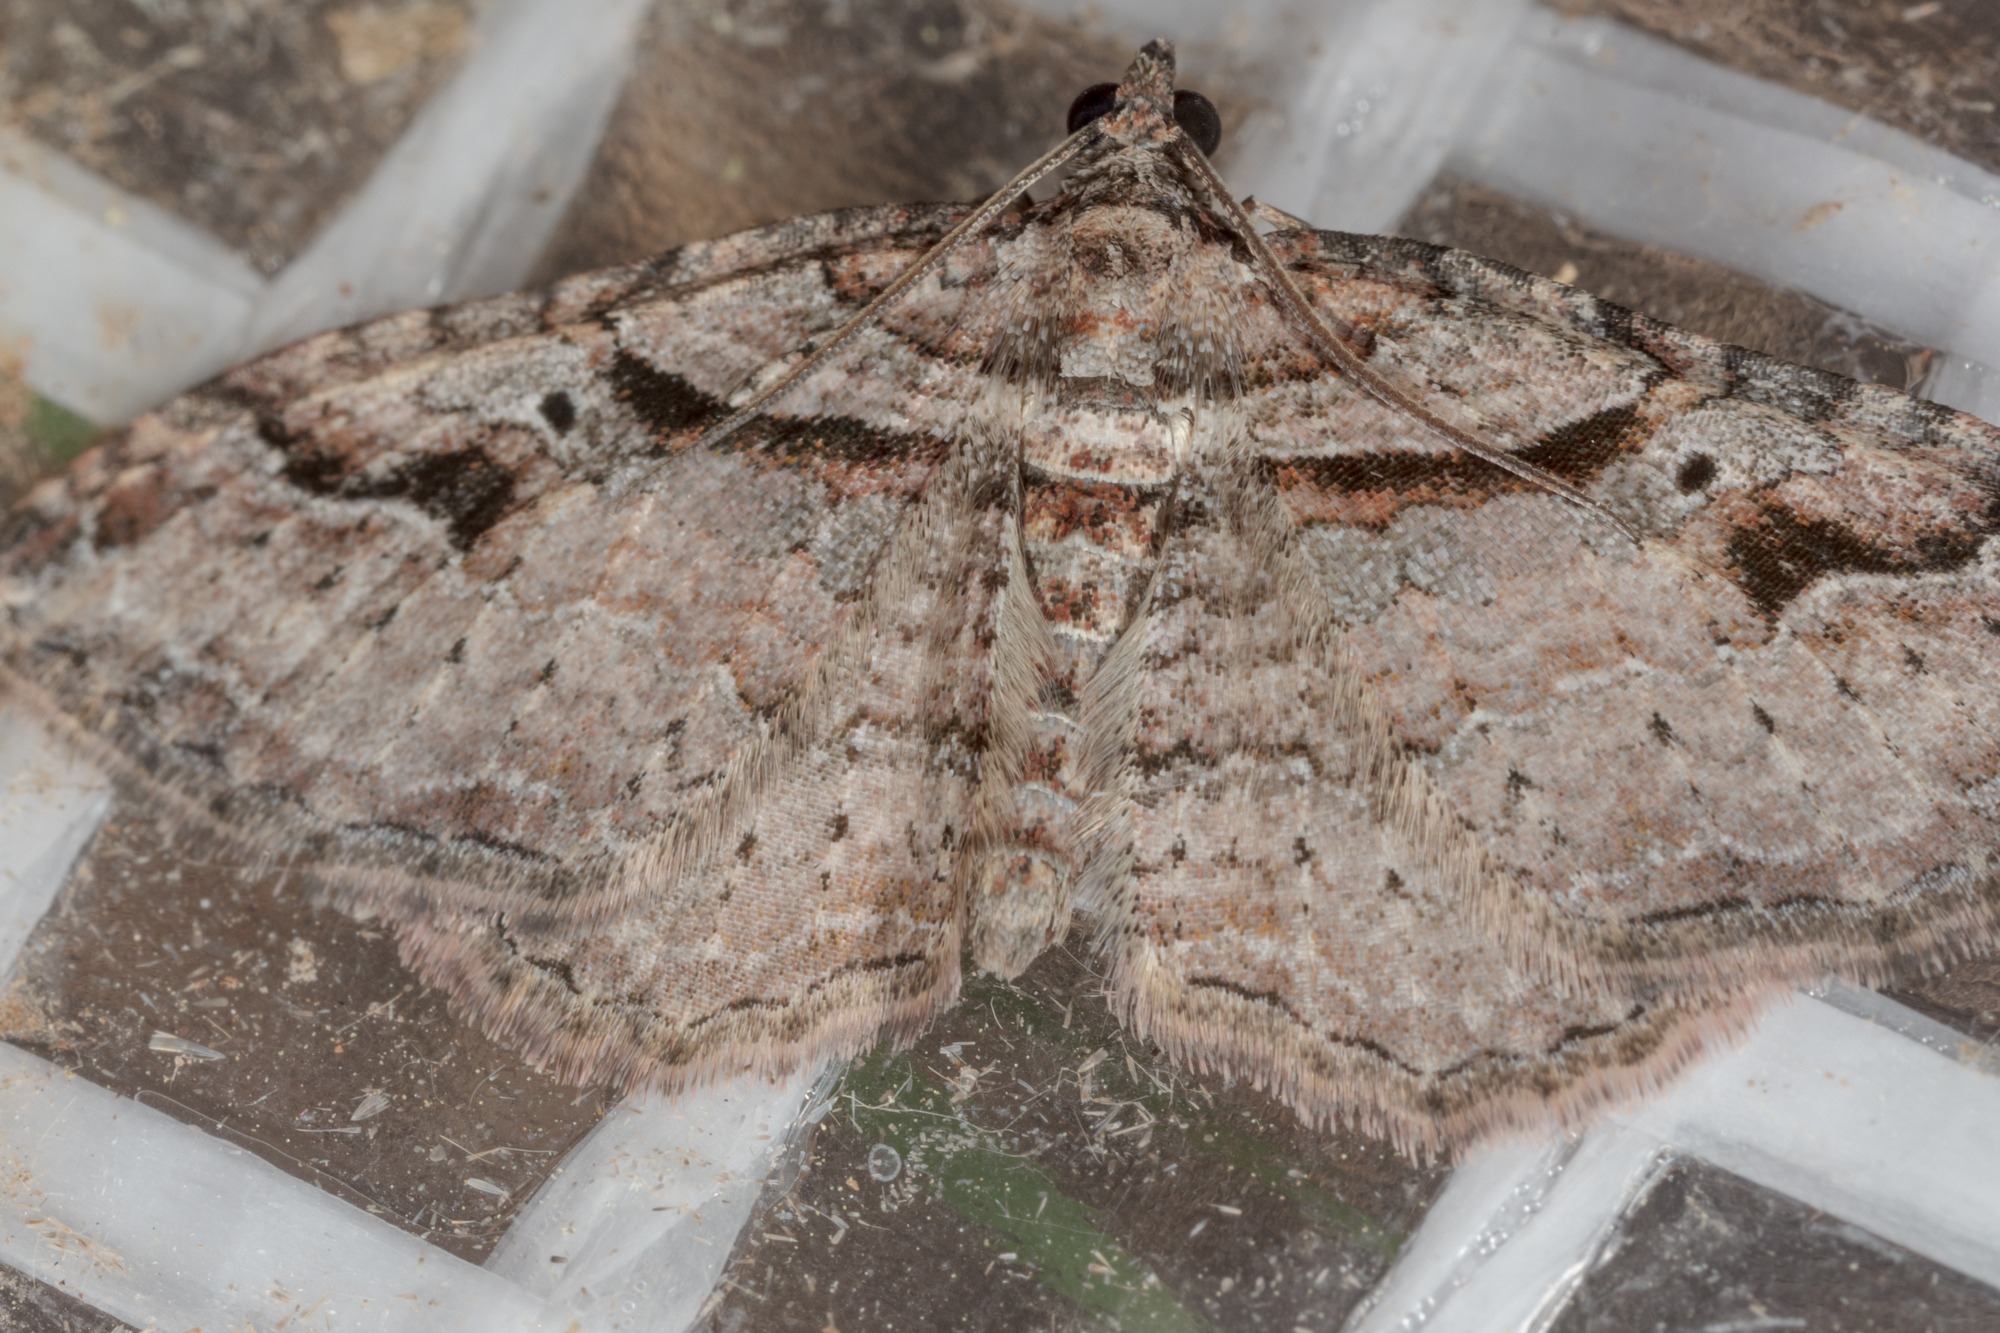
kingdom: Animalia
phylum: Arthropoda
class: Insecta
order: Lepidoptera
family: Geometridae
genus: Costaconvexa
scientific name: Costaconvexa centrostrigaria
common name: Bent-line carpet
